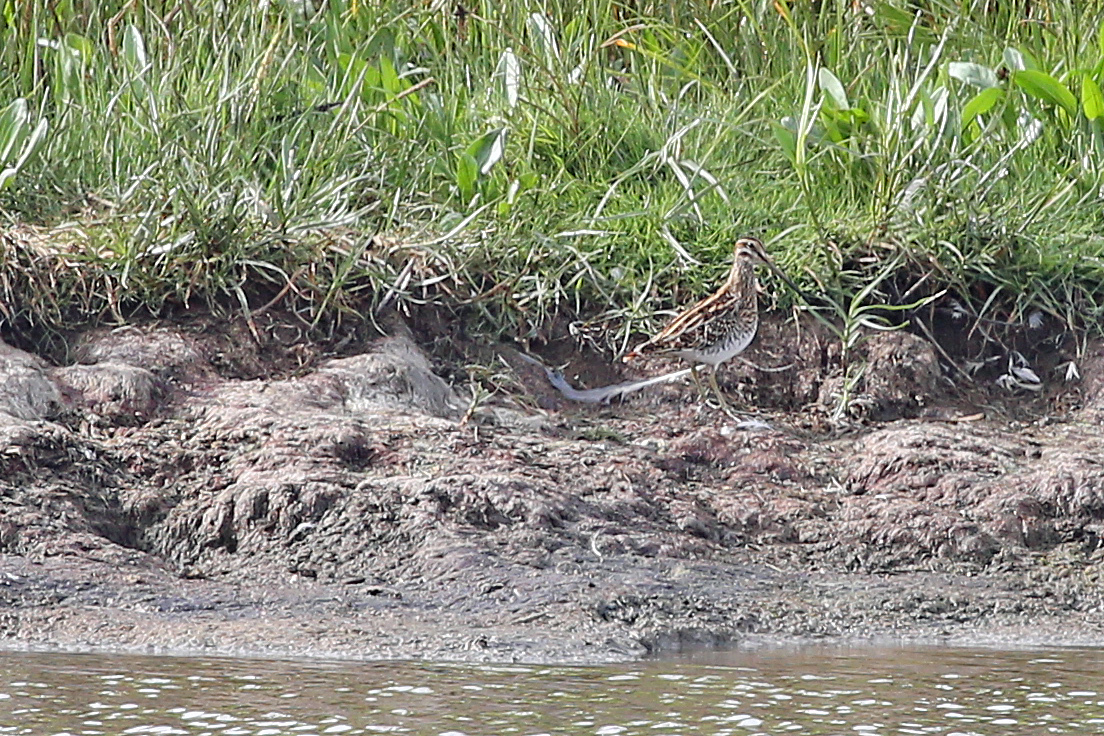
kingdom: Animalia
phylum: Chordata
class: Aves
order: Charadriiformes
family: Scolopacidae
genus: Gallinago
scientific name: Gallinago gallinago
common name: Common snipe
